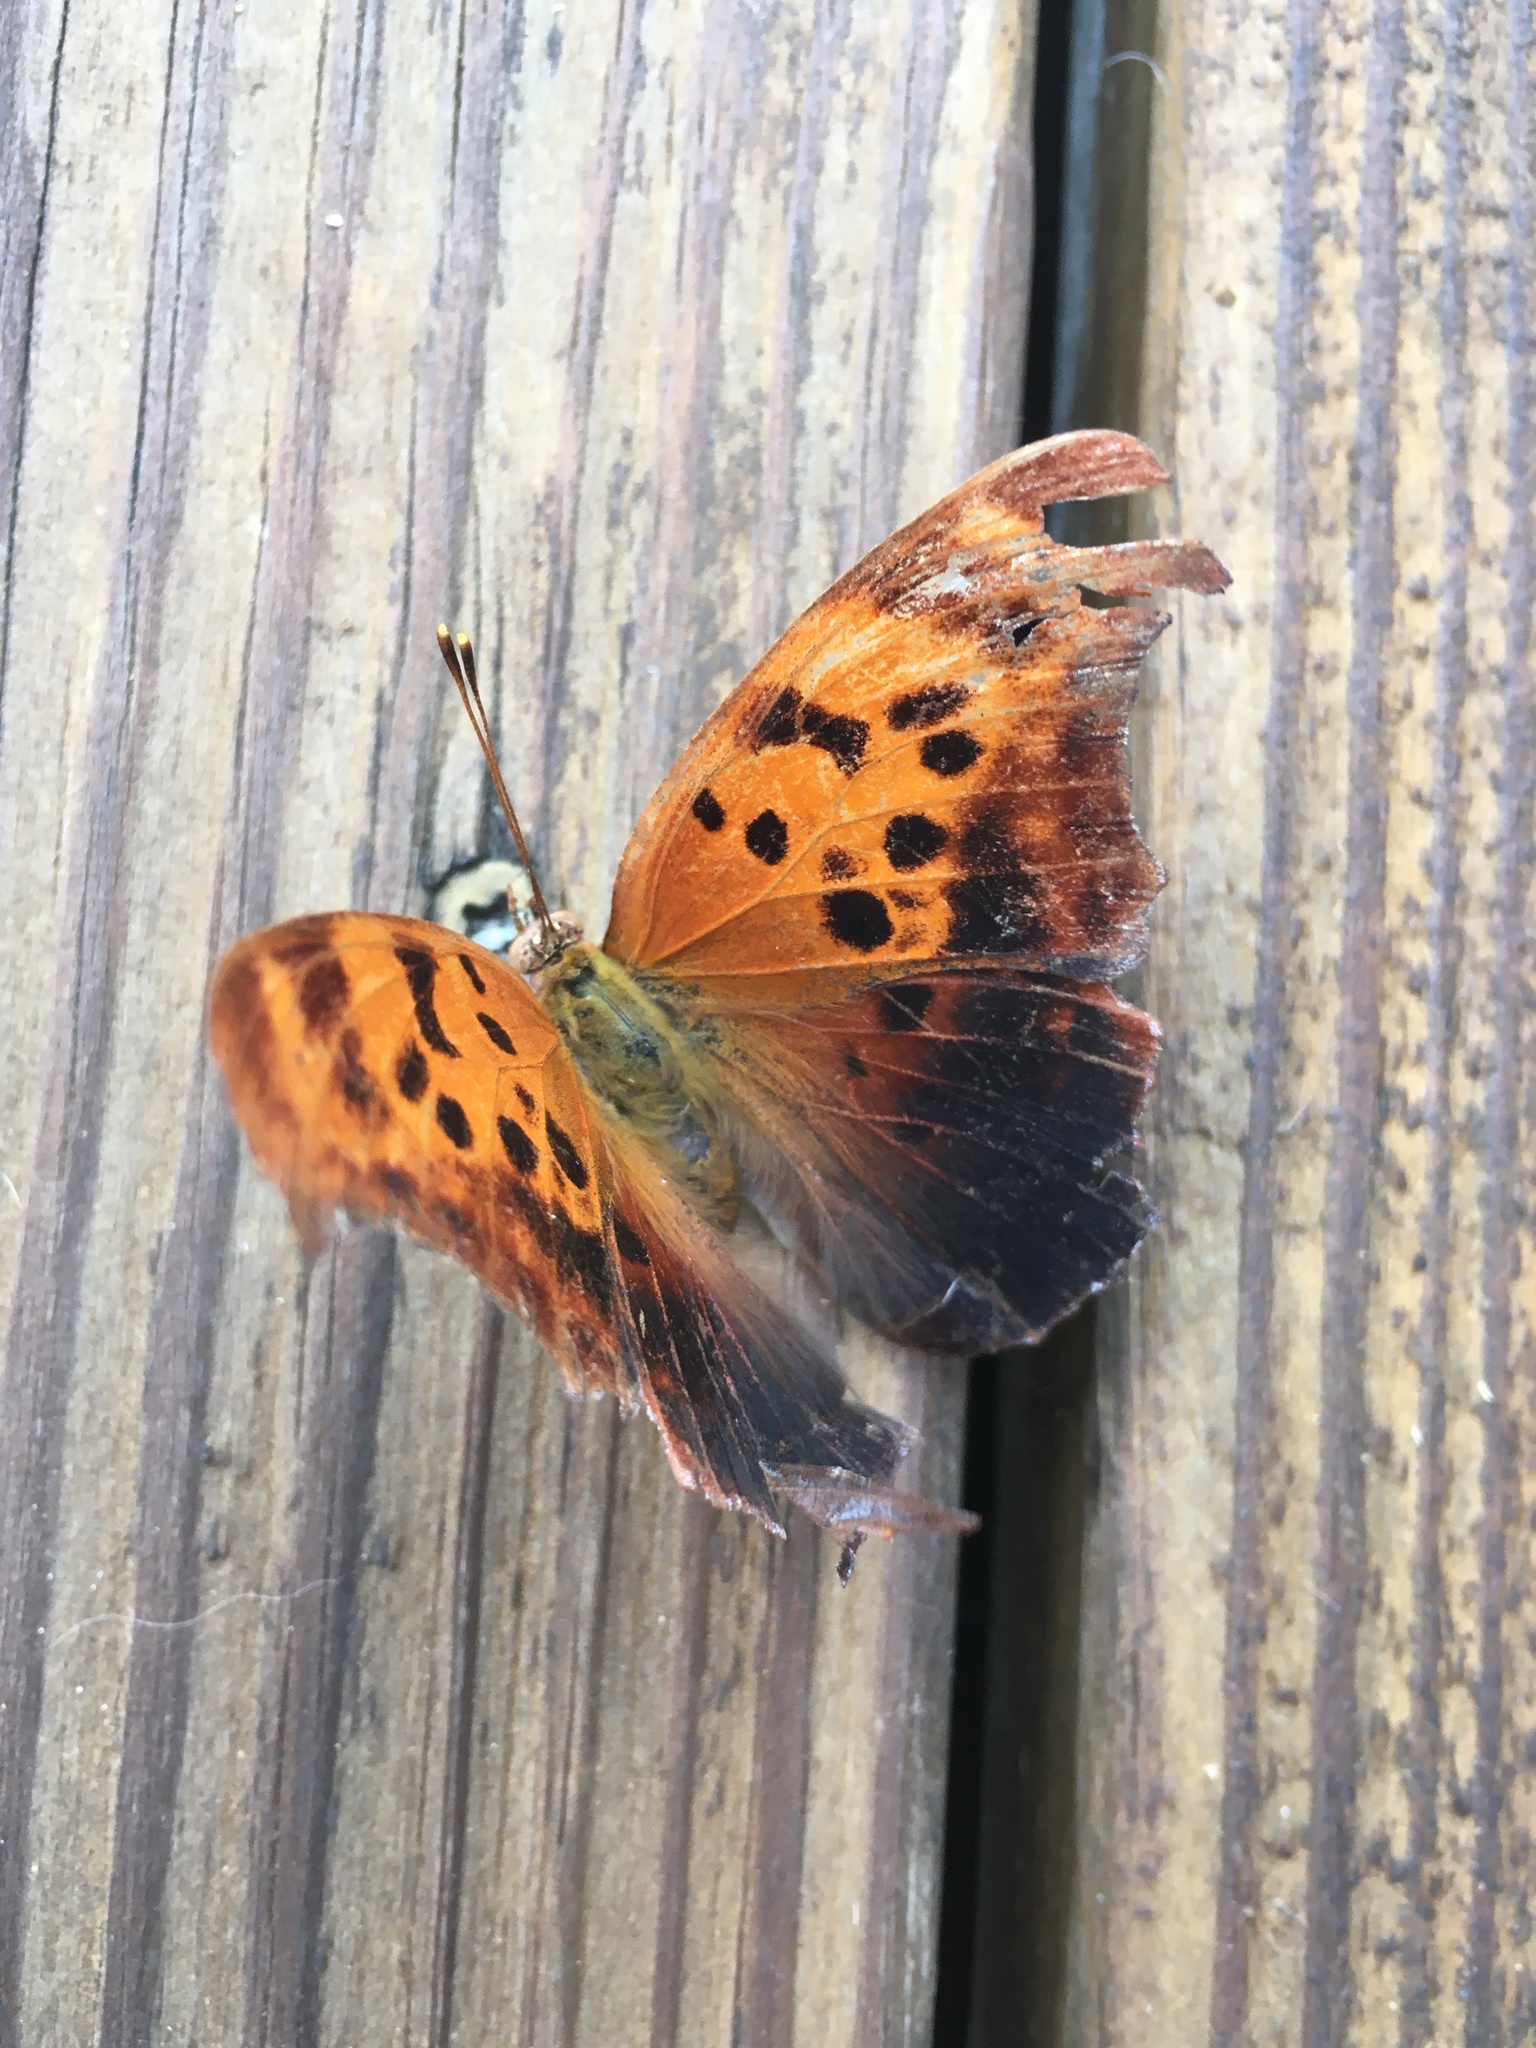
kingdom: Animalia
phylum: Arthropoda
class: Insecta
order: Lepidoptera
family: Nymphalidae
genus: Polygonia
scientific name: Polygonia interrogationis
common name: Question mark
